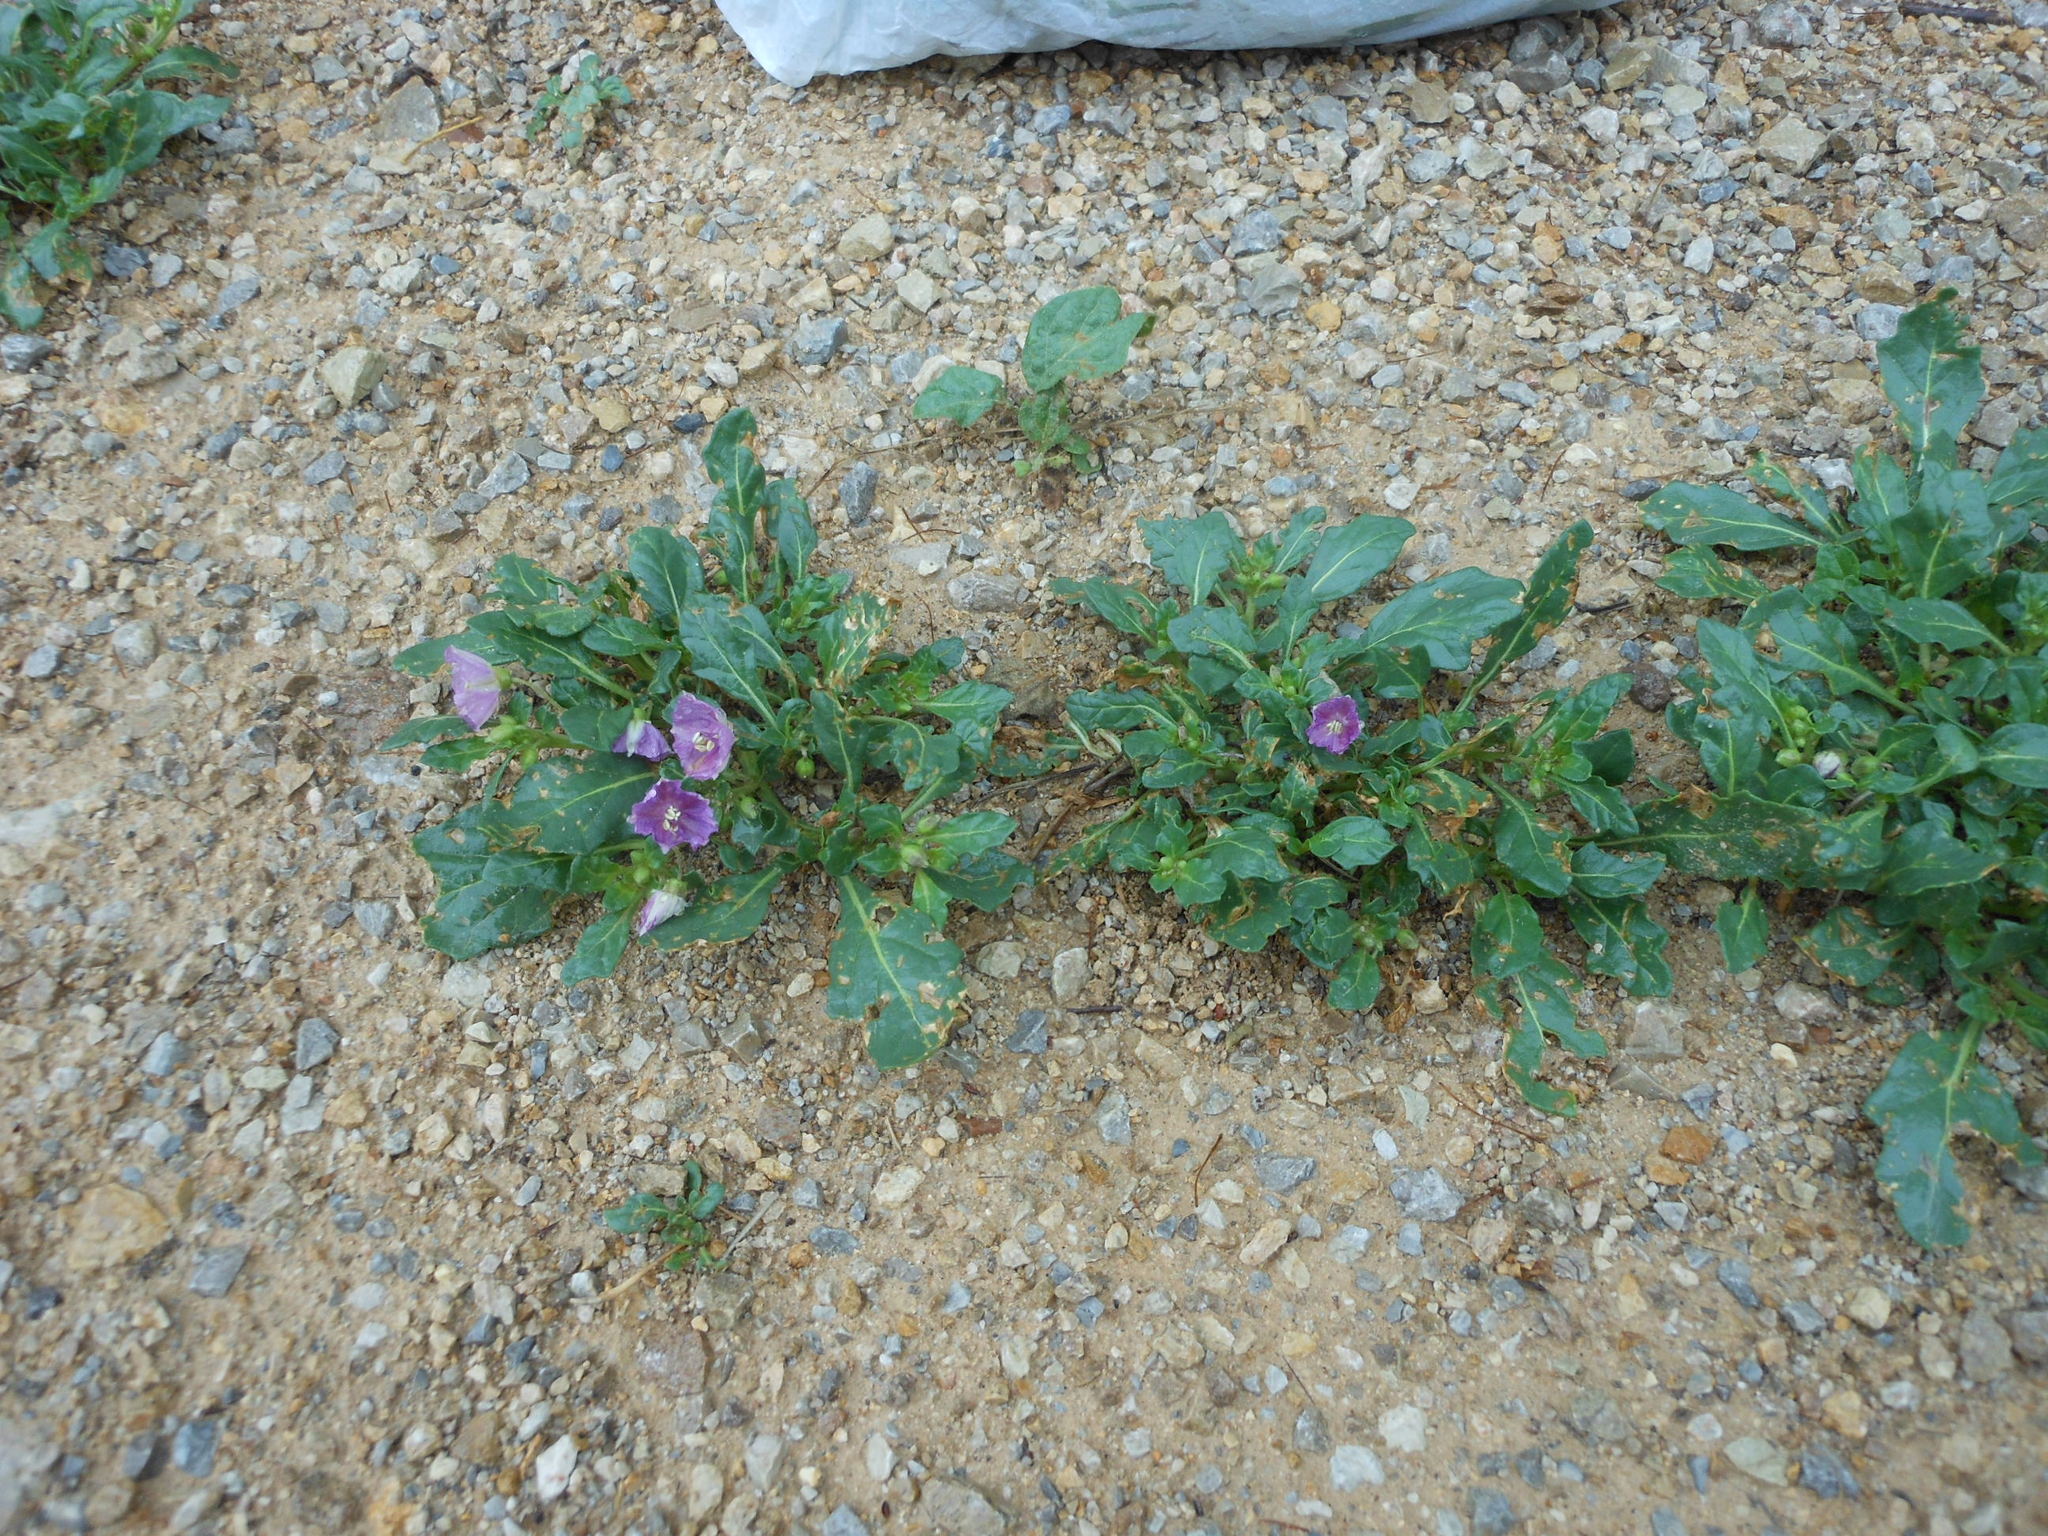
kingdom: Plantae
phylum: Tracheophyta
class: Magnoliopsida
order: Solanales
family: Solanaceae
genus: Quincula
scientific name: Quincula lobata
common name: Purple-ground-cherry
